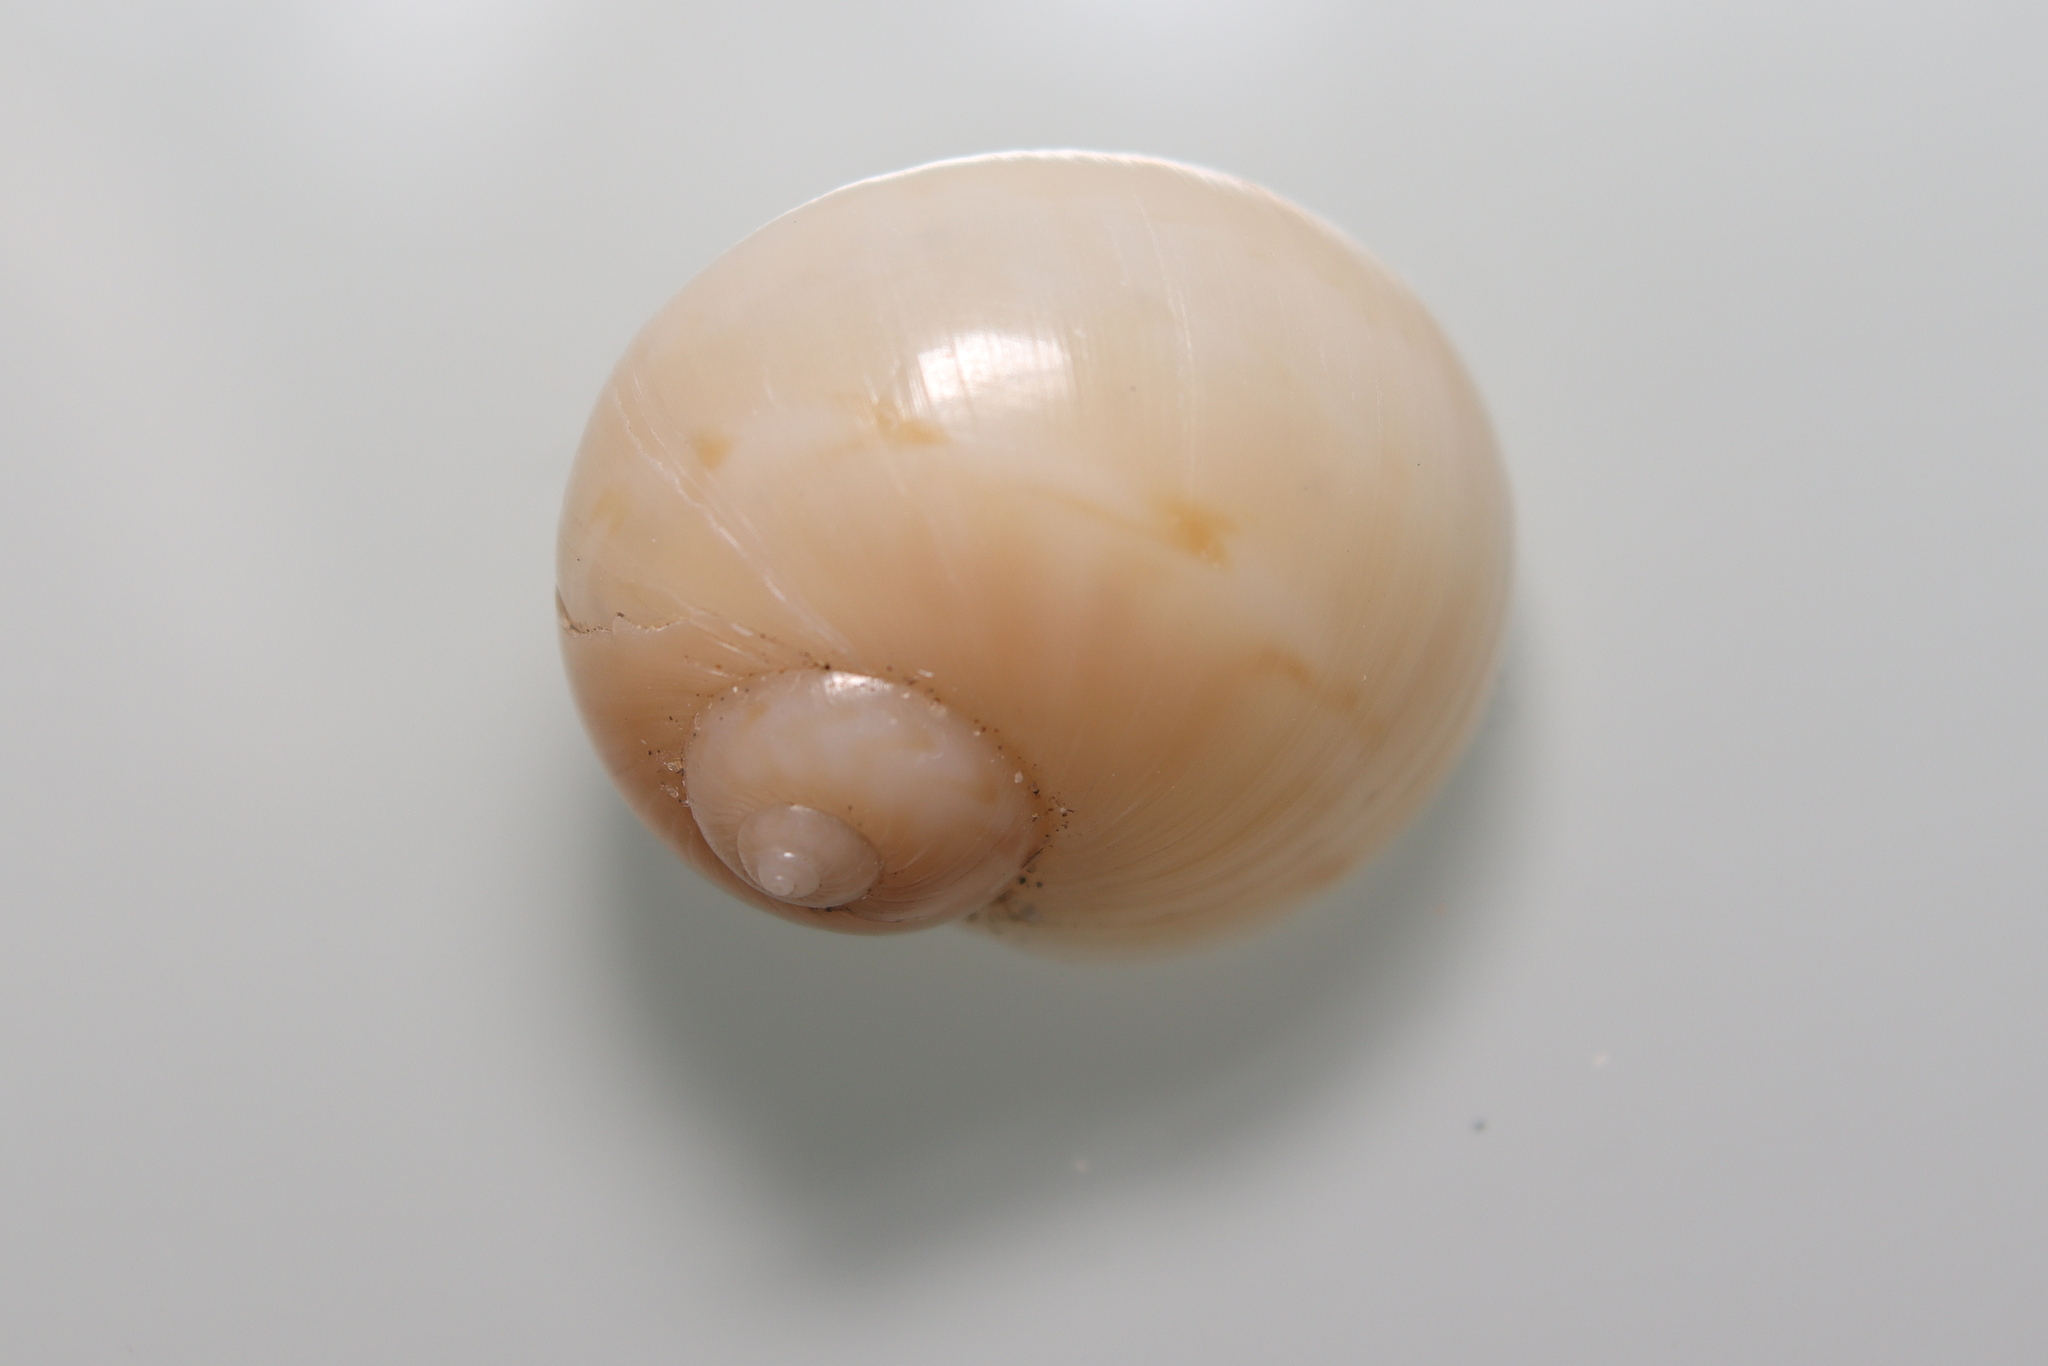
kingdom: Animalia
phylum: Mollusca
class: Gastropoda
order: Littorinimorpha
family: Naticidae
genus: Notocochlis
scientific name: Notocochlis isabelleana
